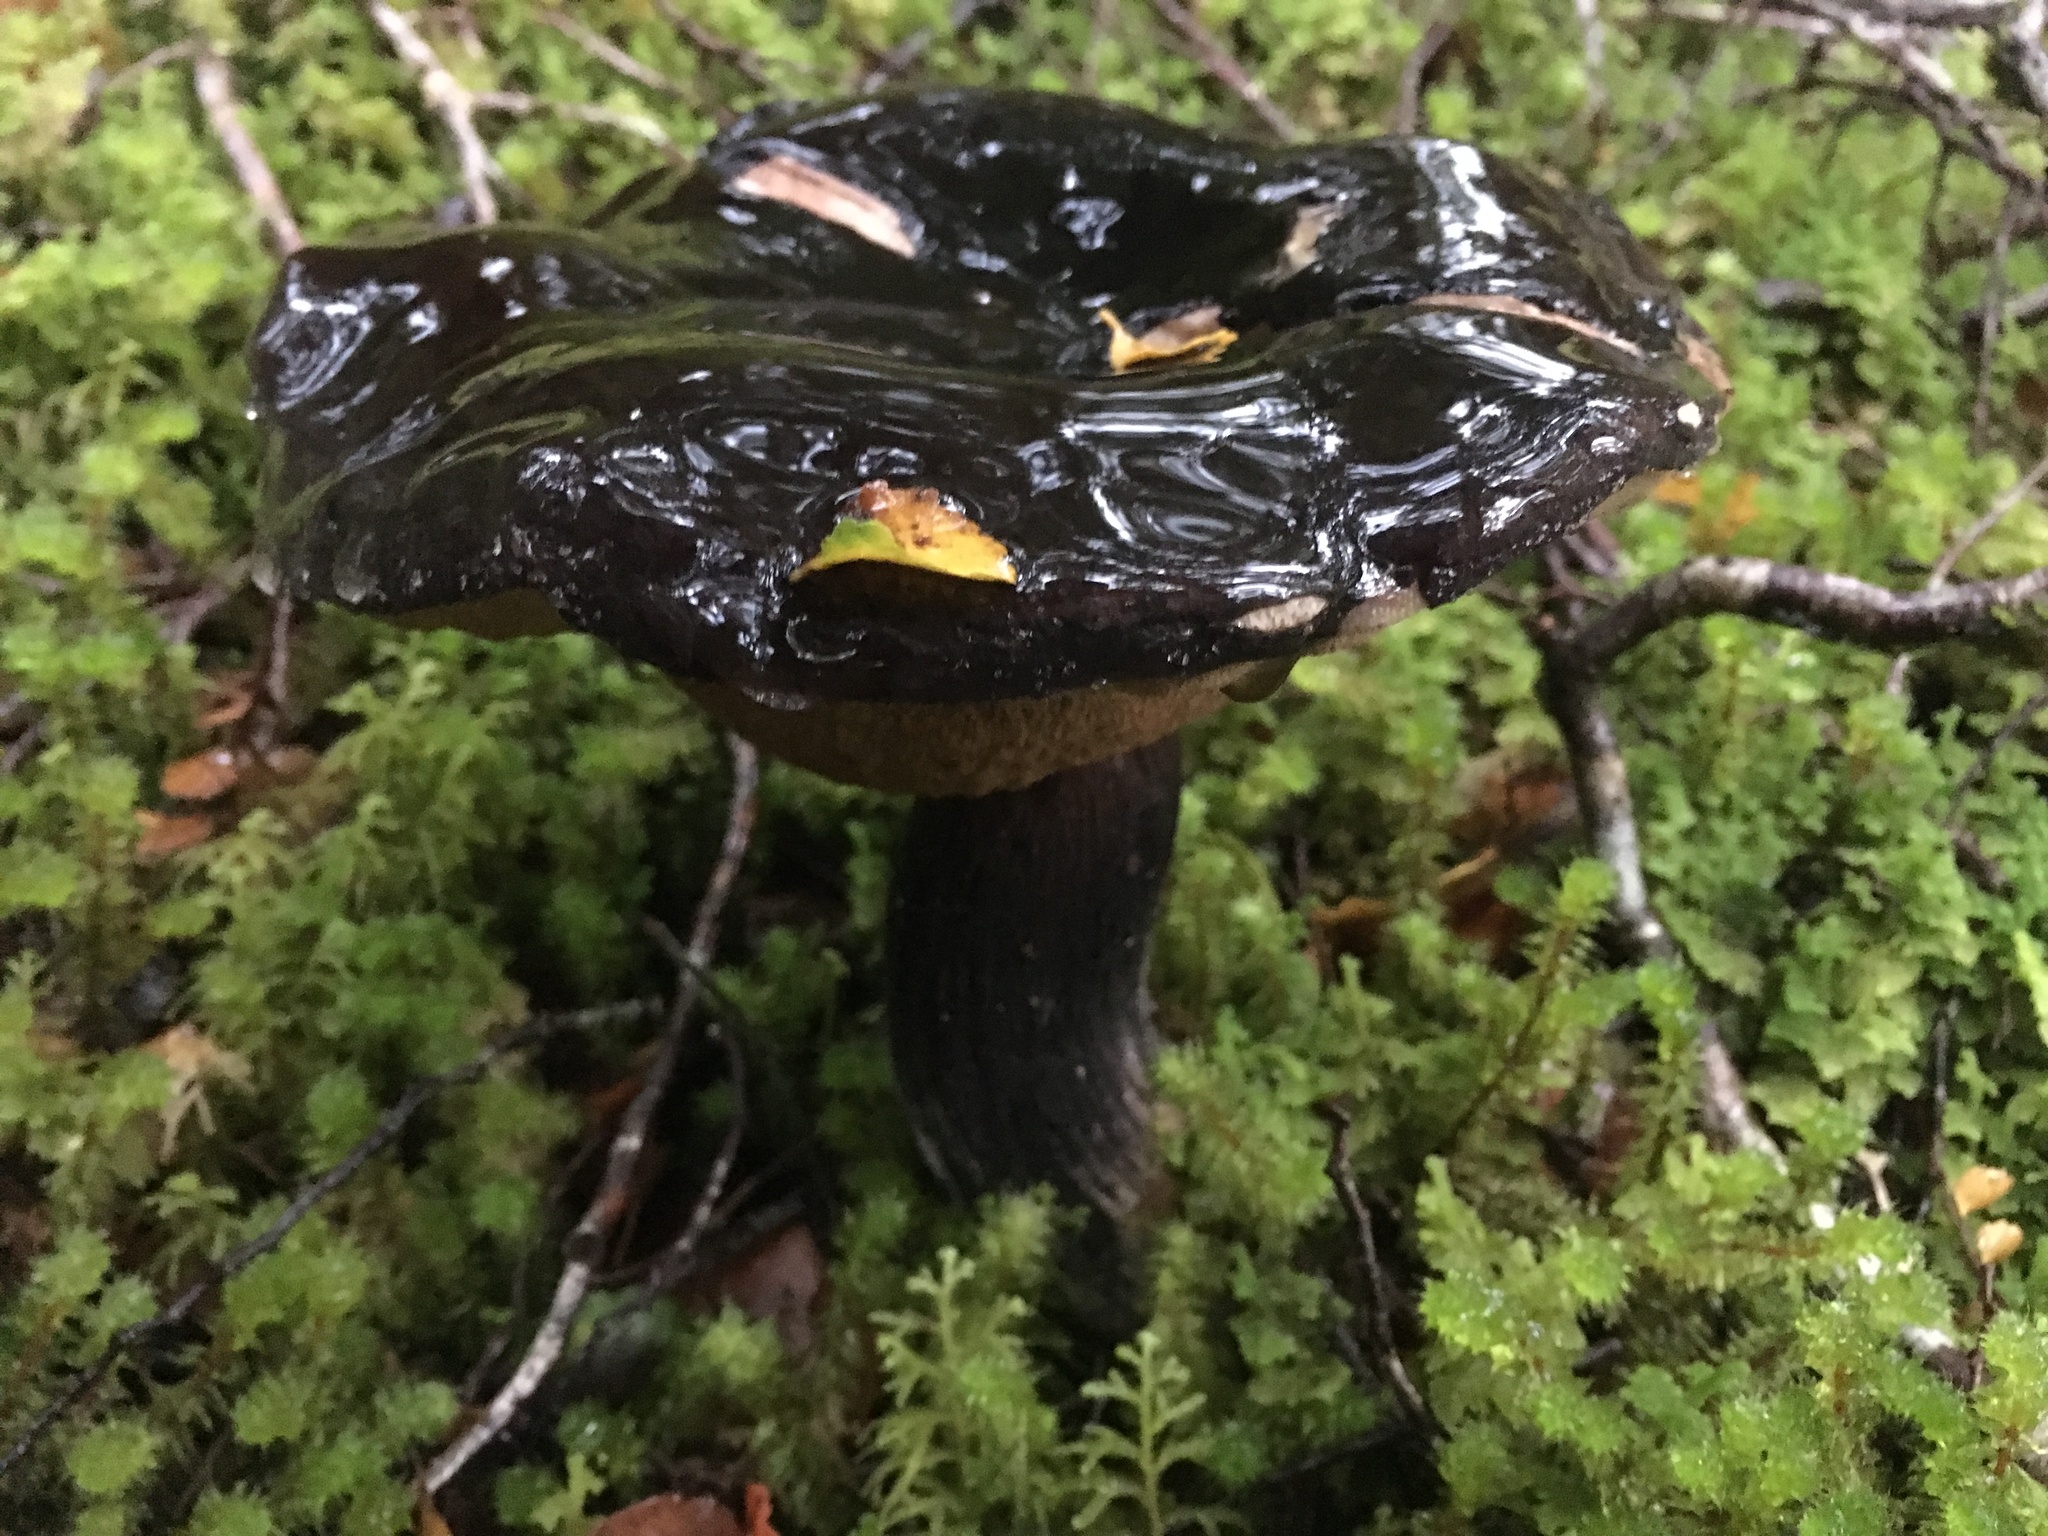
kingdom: Fungi
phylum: Basidiomycota
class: Agaricomycetes
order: Boletales
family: Boletaceae
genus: Porphyrellus
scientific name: Porphyrellus formosus
